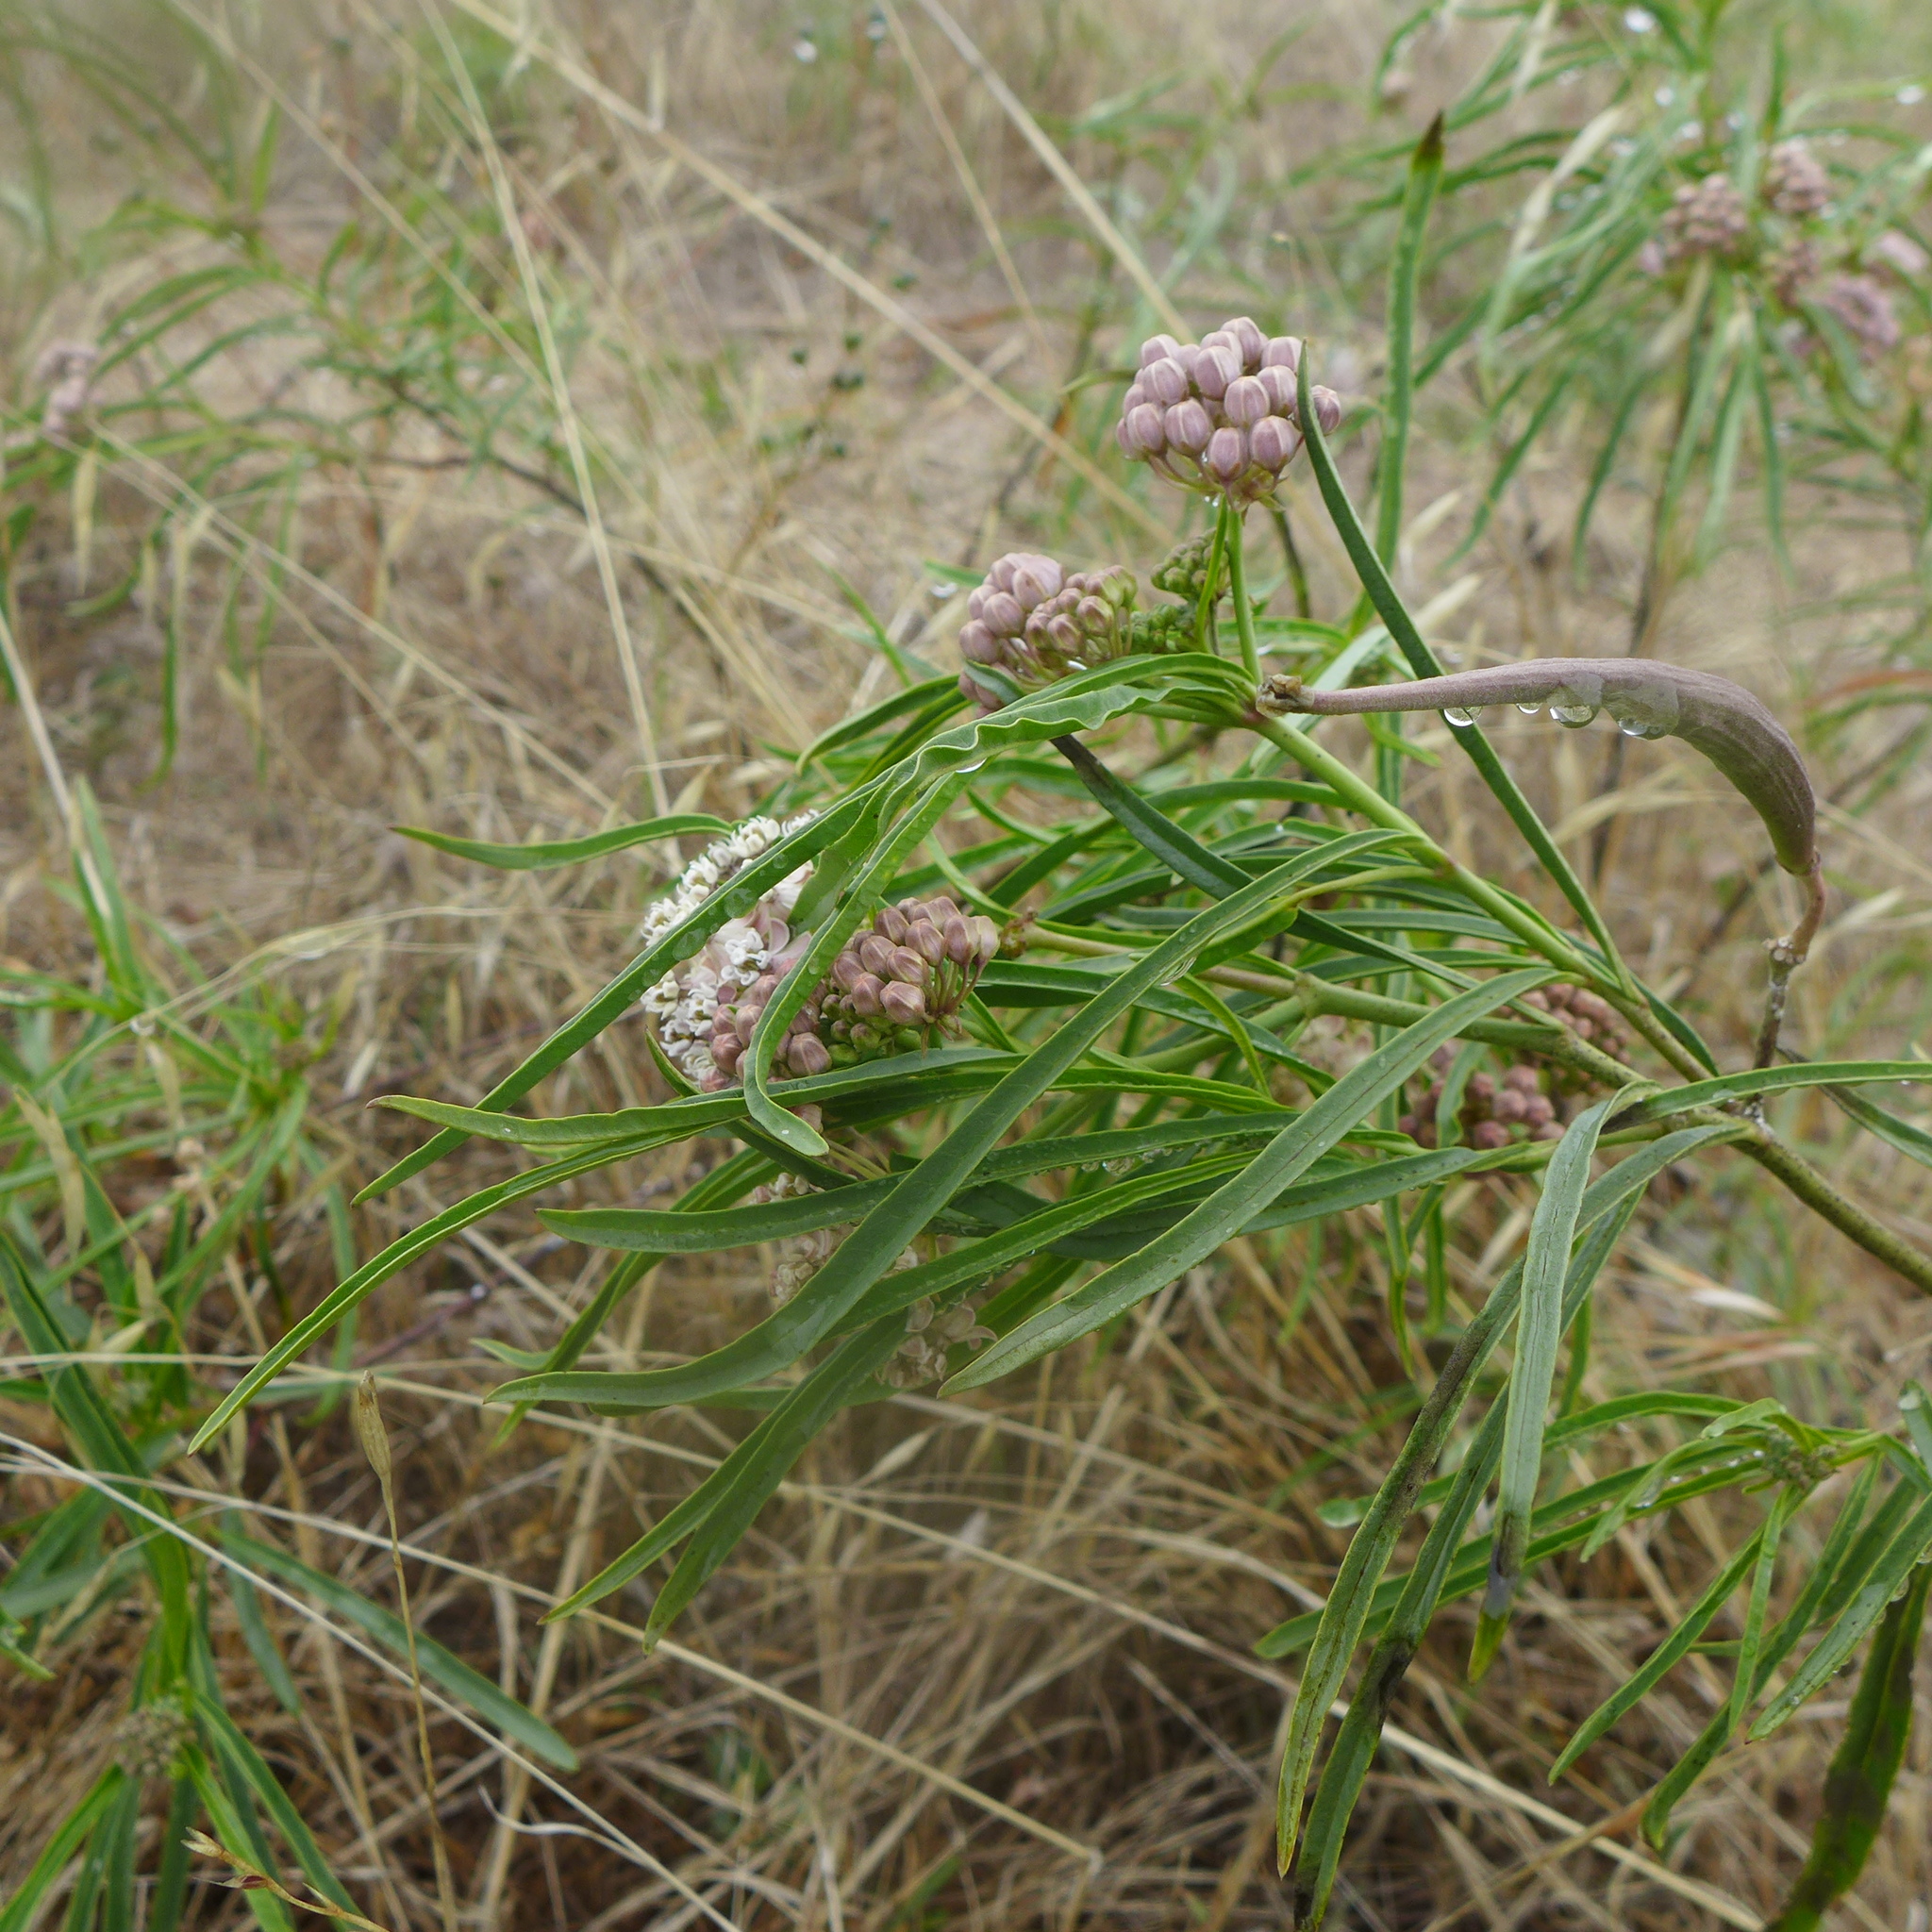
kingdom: Plantae
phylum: Tracheophyta
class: Magnoliopsida
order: Gentianales
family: Apocynaceae
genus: Asclepias
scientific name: Asclepias fascicularis
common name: Mexican milkweed
